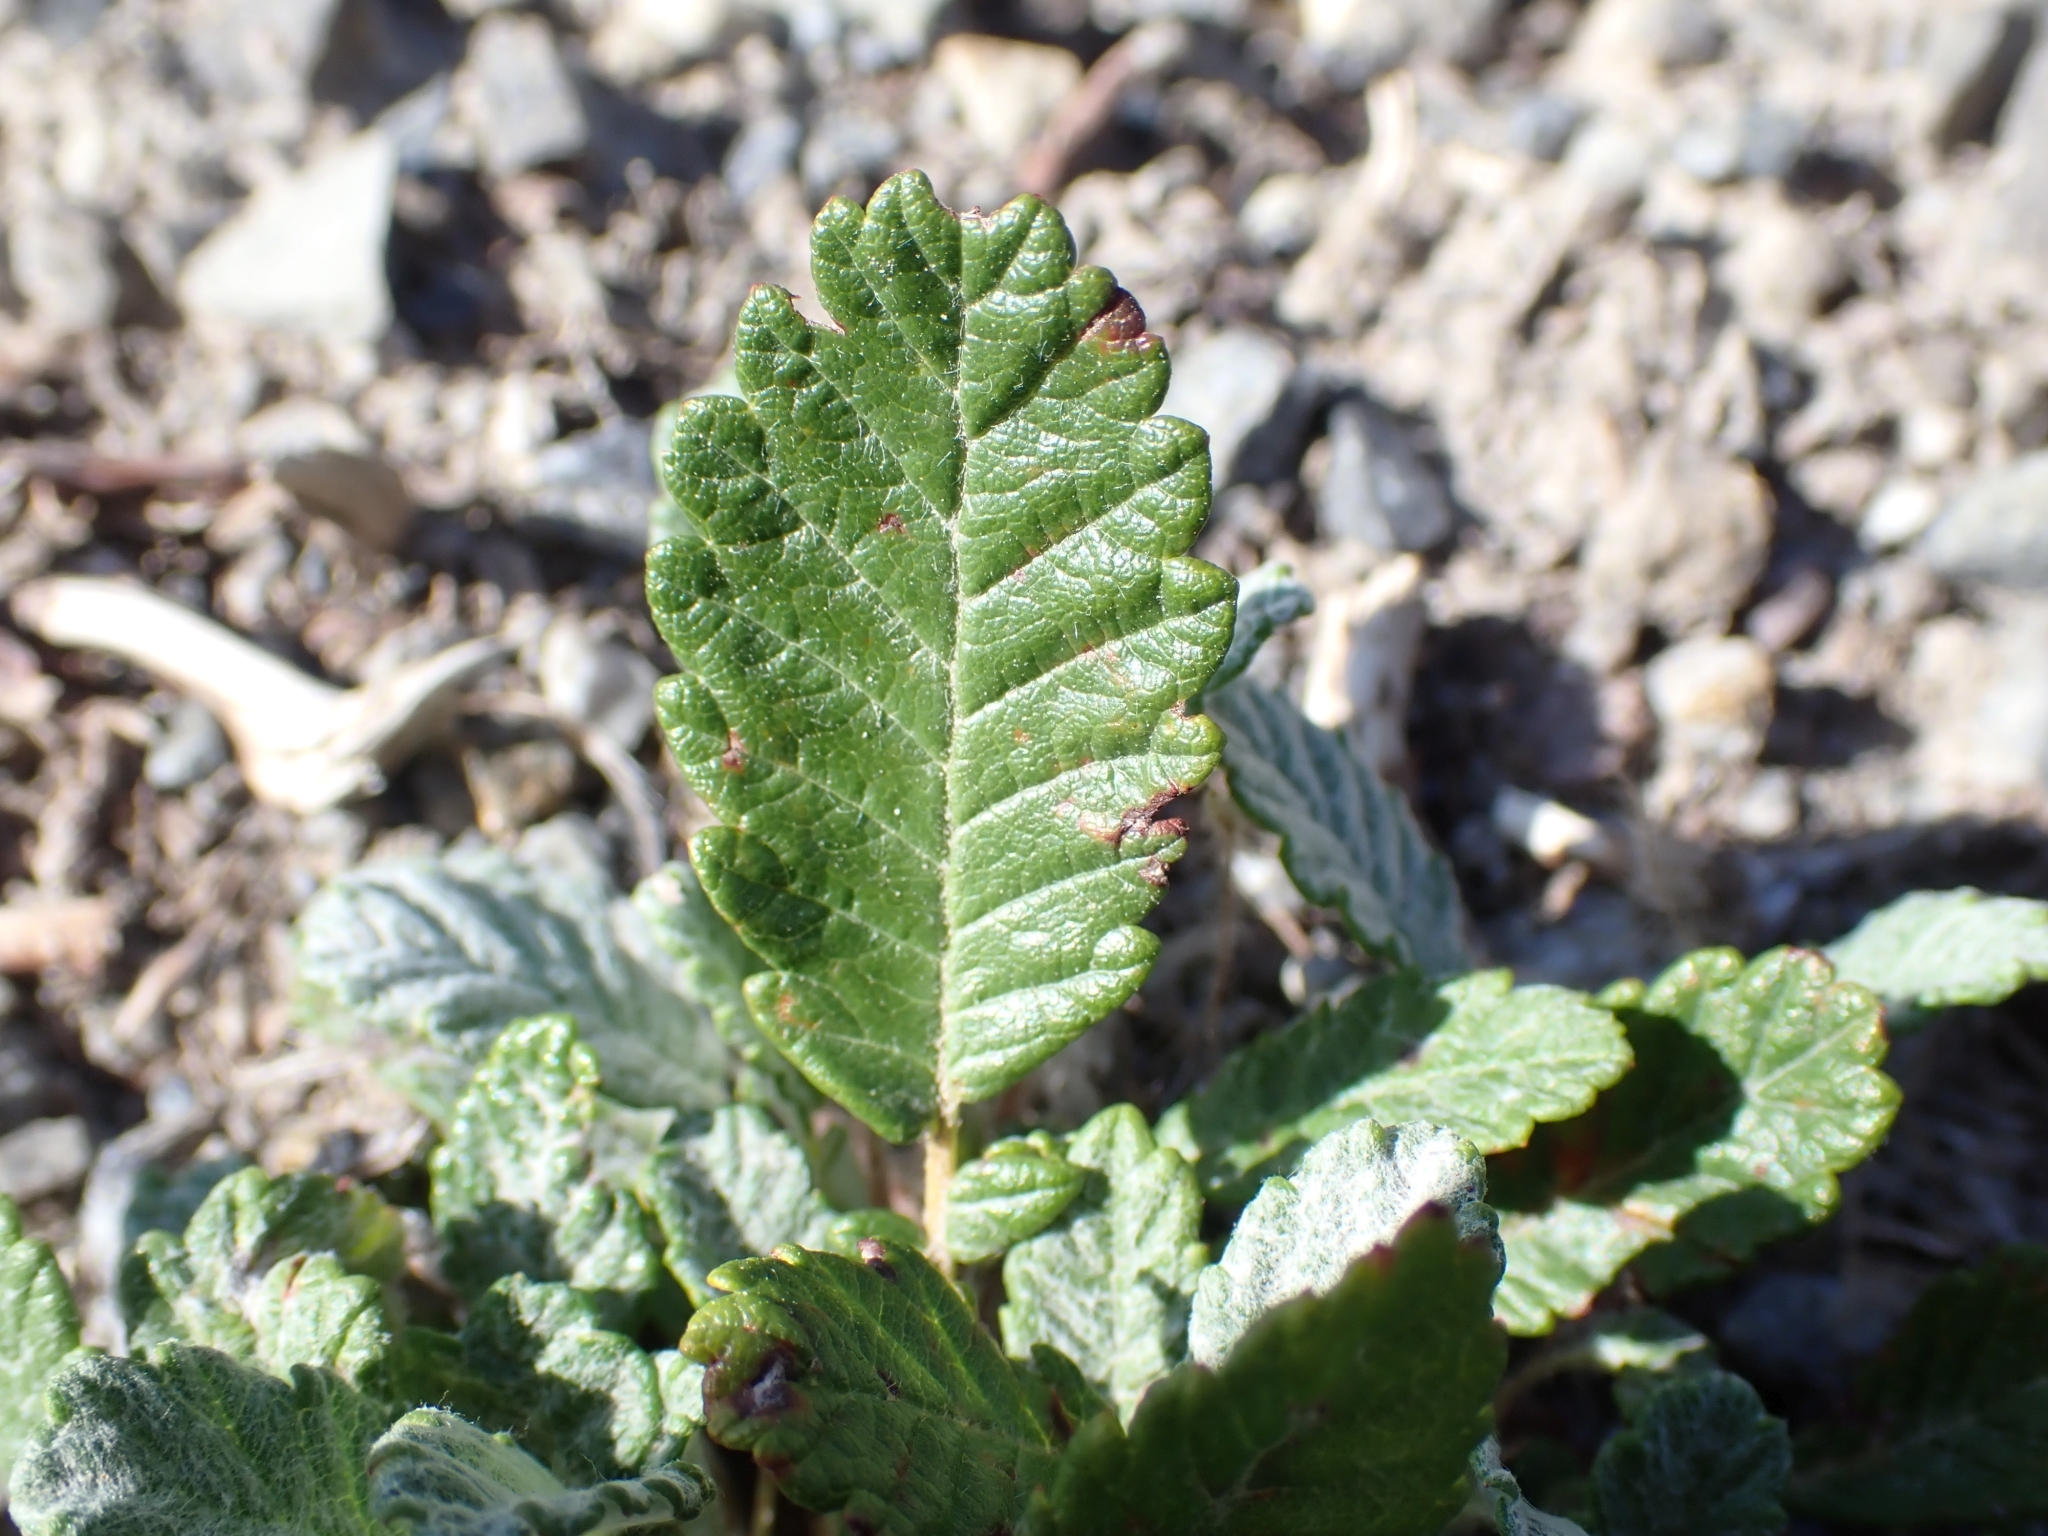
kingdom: Plantae
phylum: Tracheophyta
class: Magnoliopsida
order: Rosales
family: Rosaceae
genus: Dryas
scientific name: Dryas drummondii
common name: Drummond's dryad
